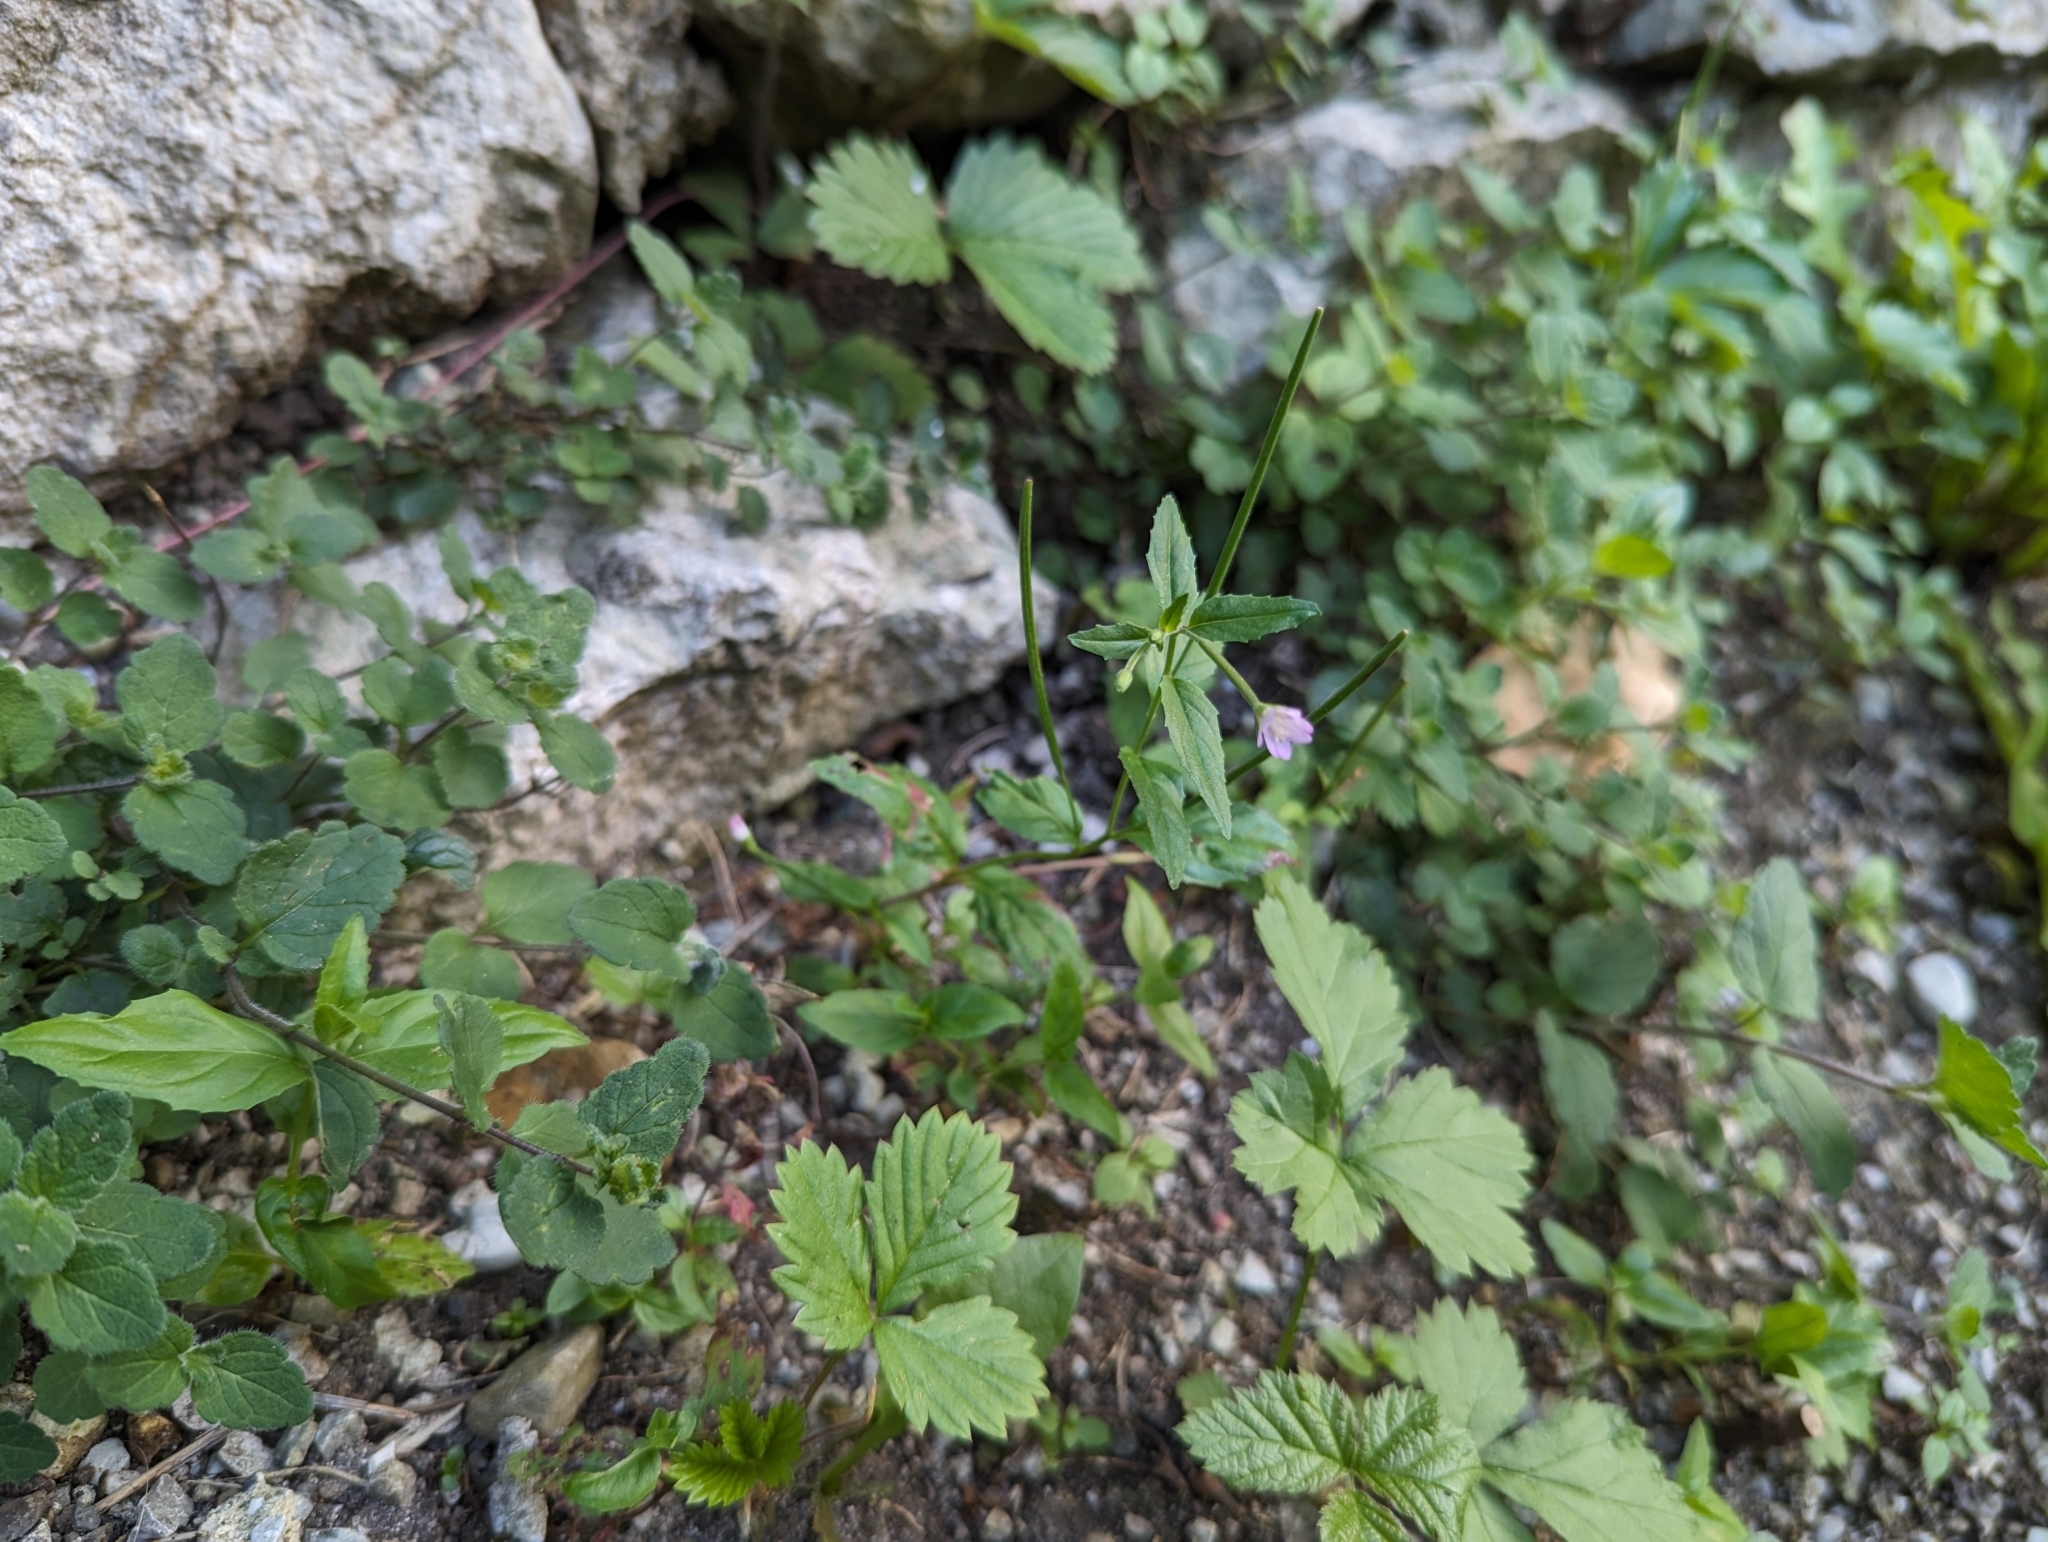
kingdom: Plantae
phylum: Tracheophyta
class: Magnoliopsida
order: Myrtales
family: Onagraceae
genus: Epilobium
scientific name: Epilobium montanum
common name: Broad-leaved willowherb
